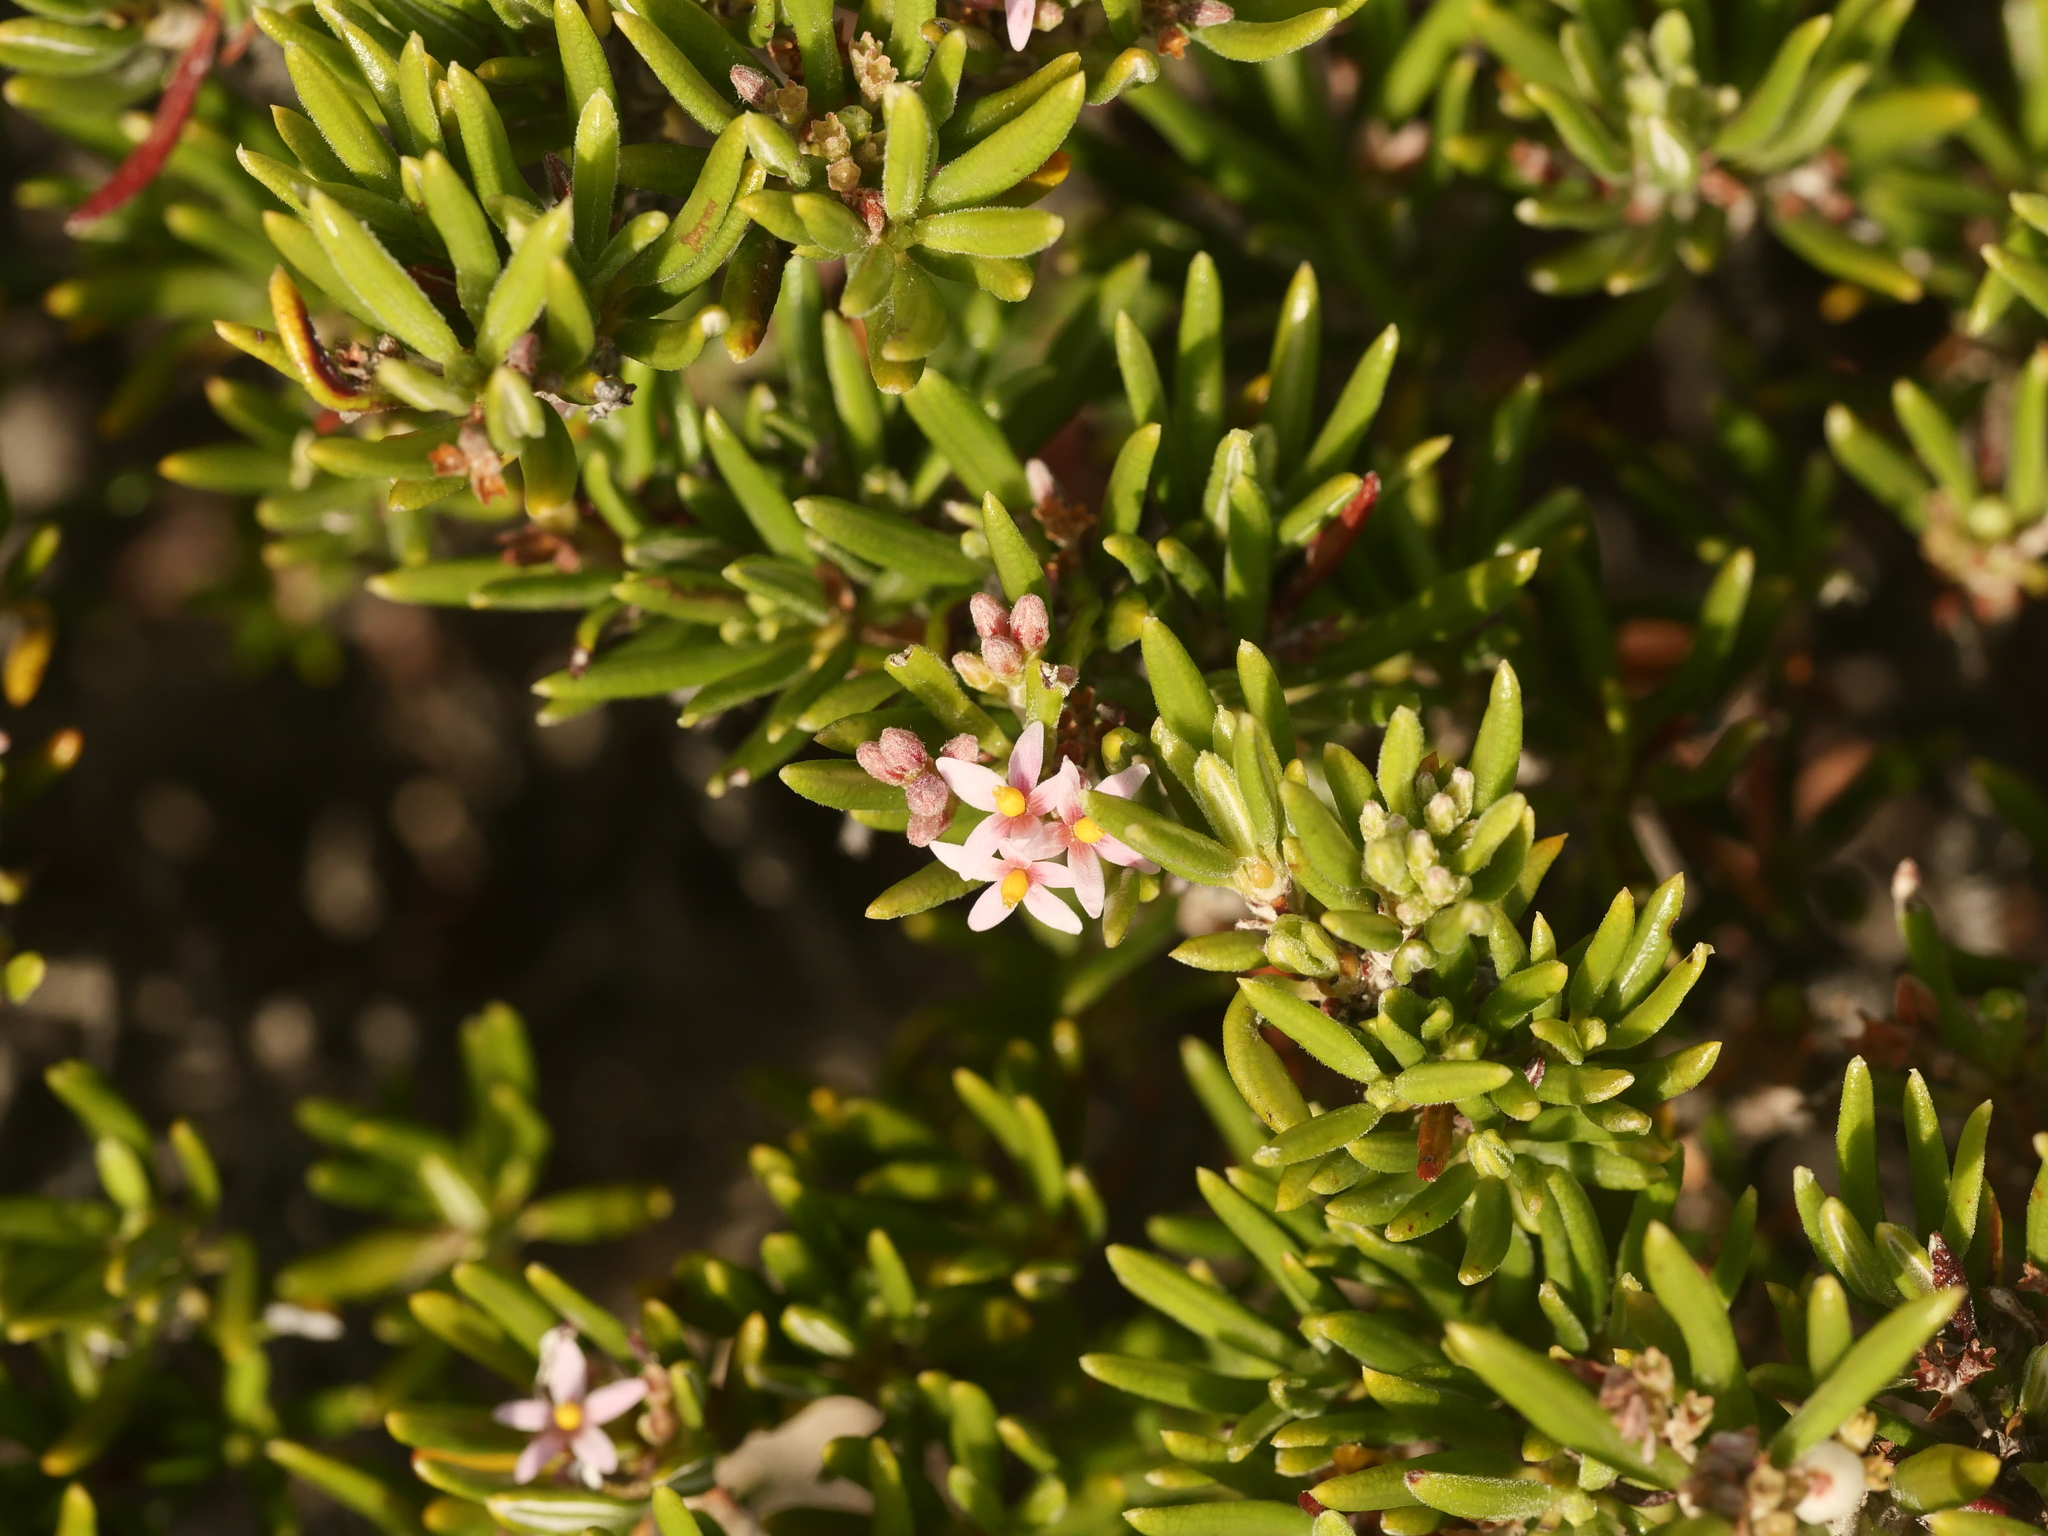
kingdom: Plantae
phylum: Tracheophyta
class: Magnoliopsida
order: Gentianales
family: Rubiaceae
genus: Strumpfia
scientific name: Strumpfia maritima
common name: Pride-of-big pine
